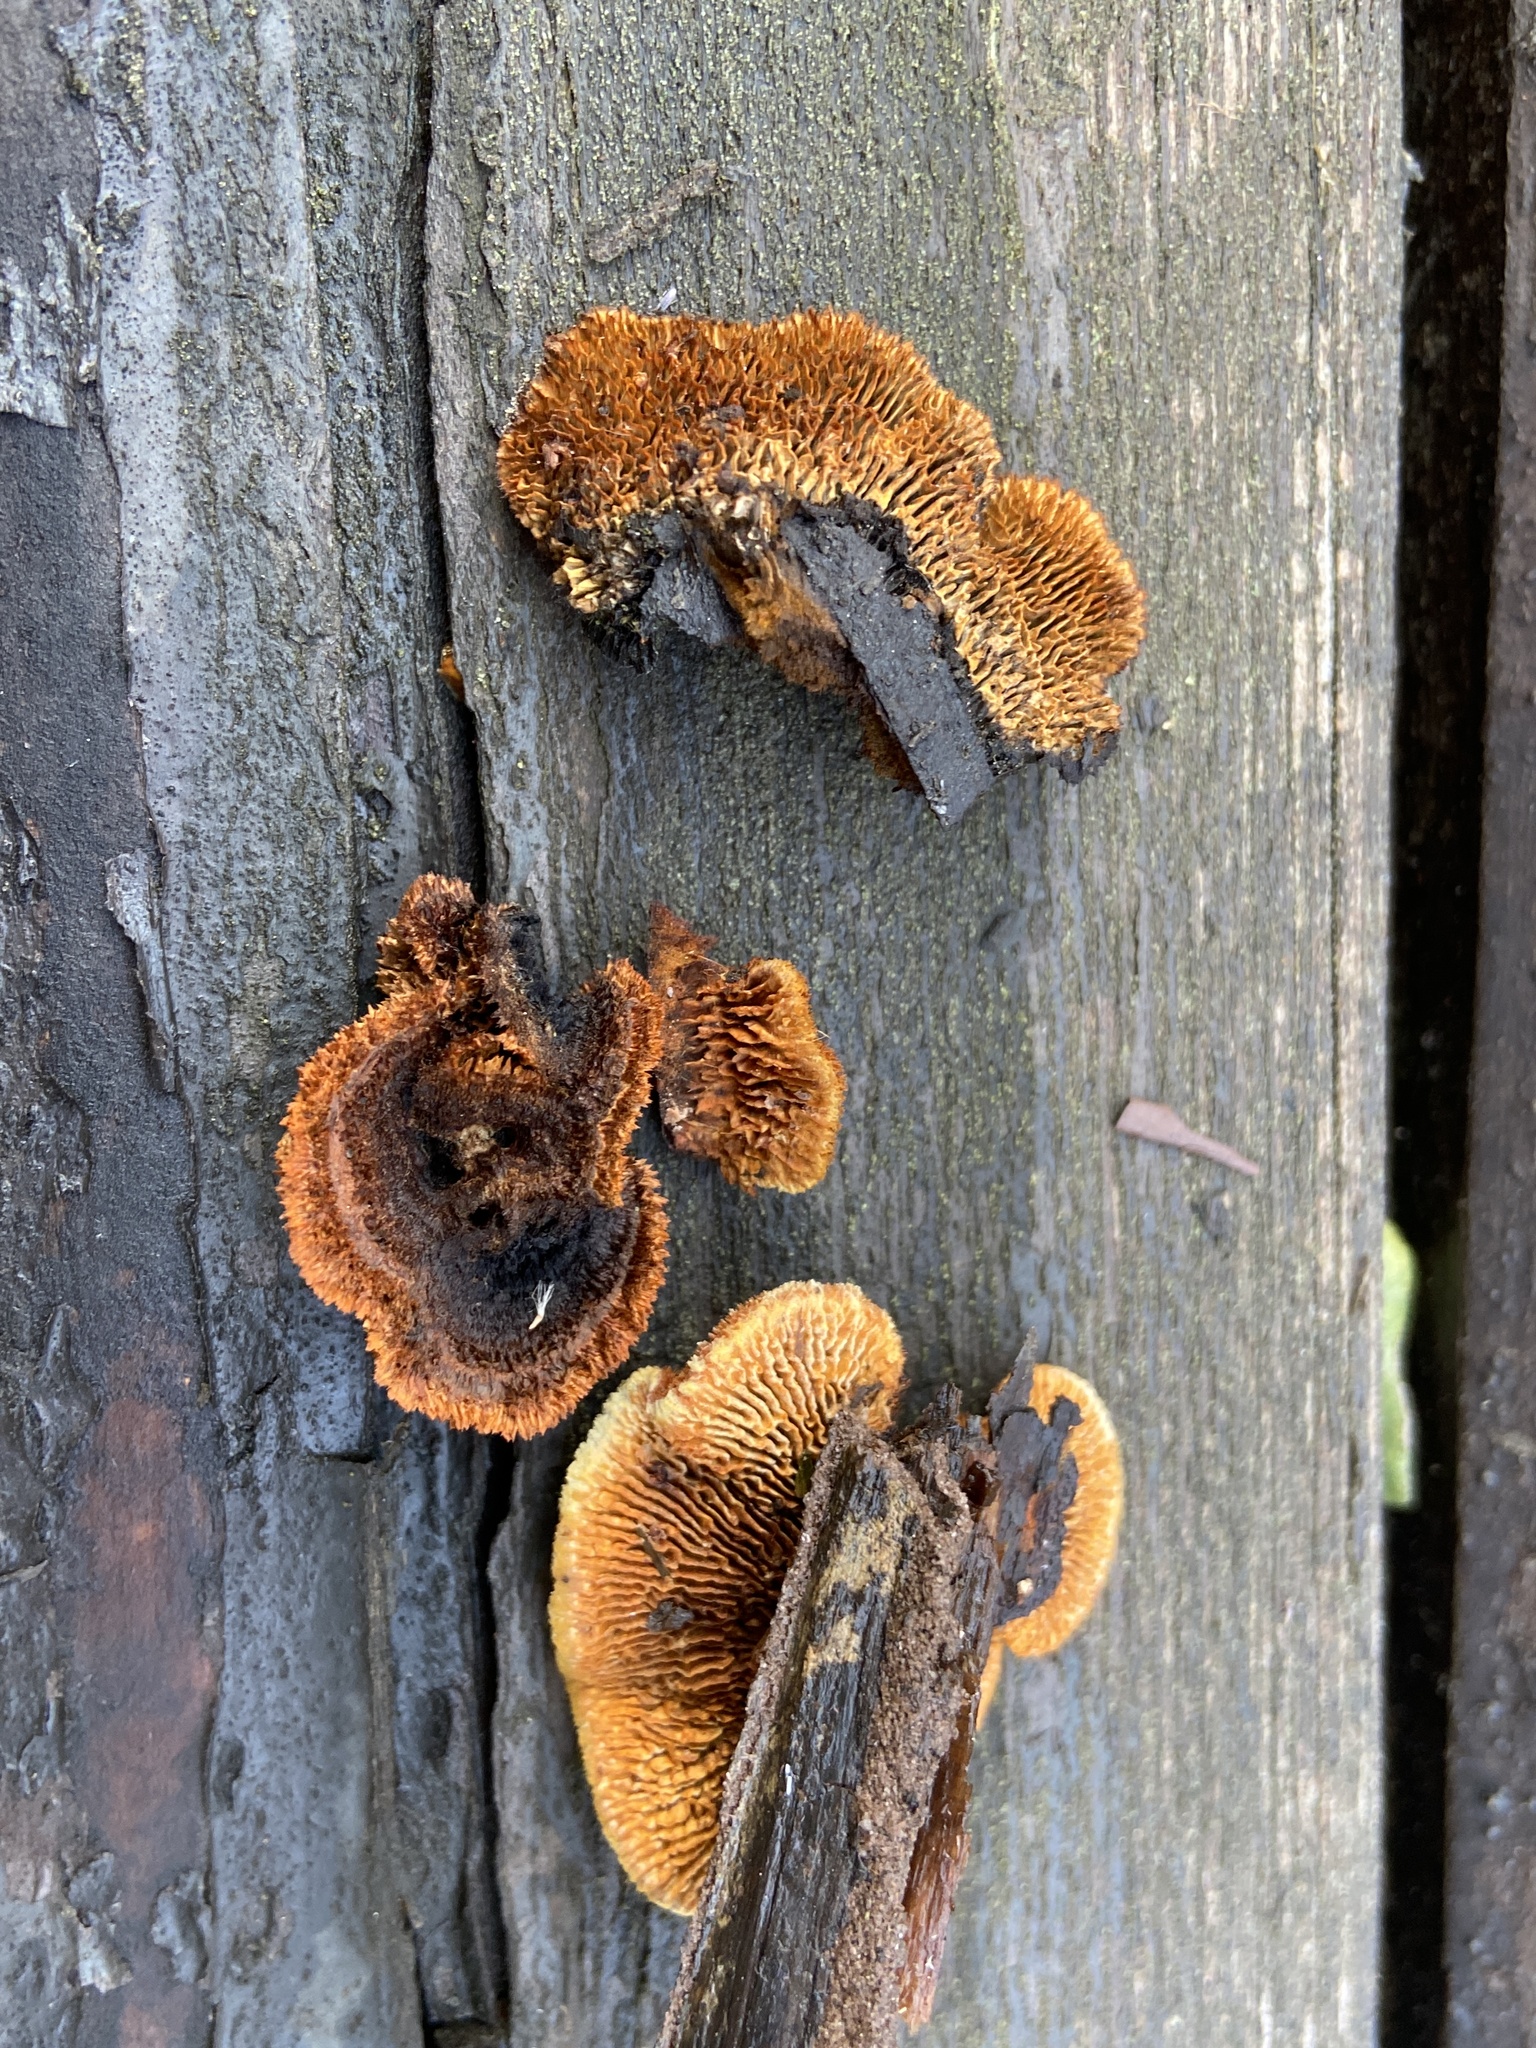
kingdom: Fungi
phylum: Basidiomycota
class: Agaricomycetes
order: Gloeophyllales
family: Gloeophyllaceae
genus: Gloeophyllum
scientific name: Gloeophyllum sepiarium
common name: Conifer mazegill
